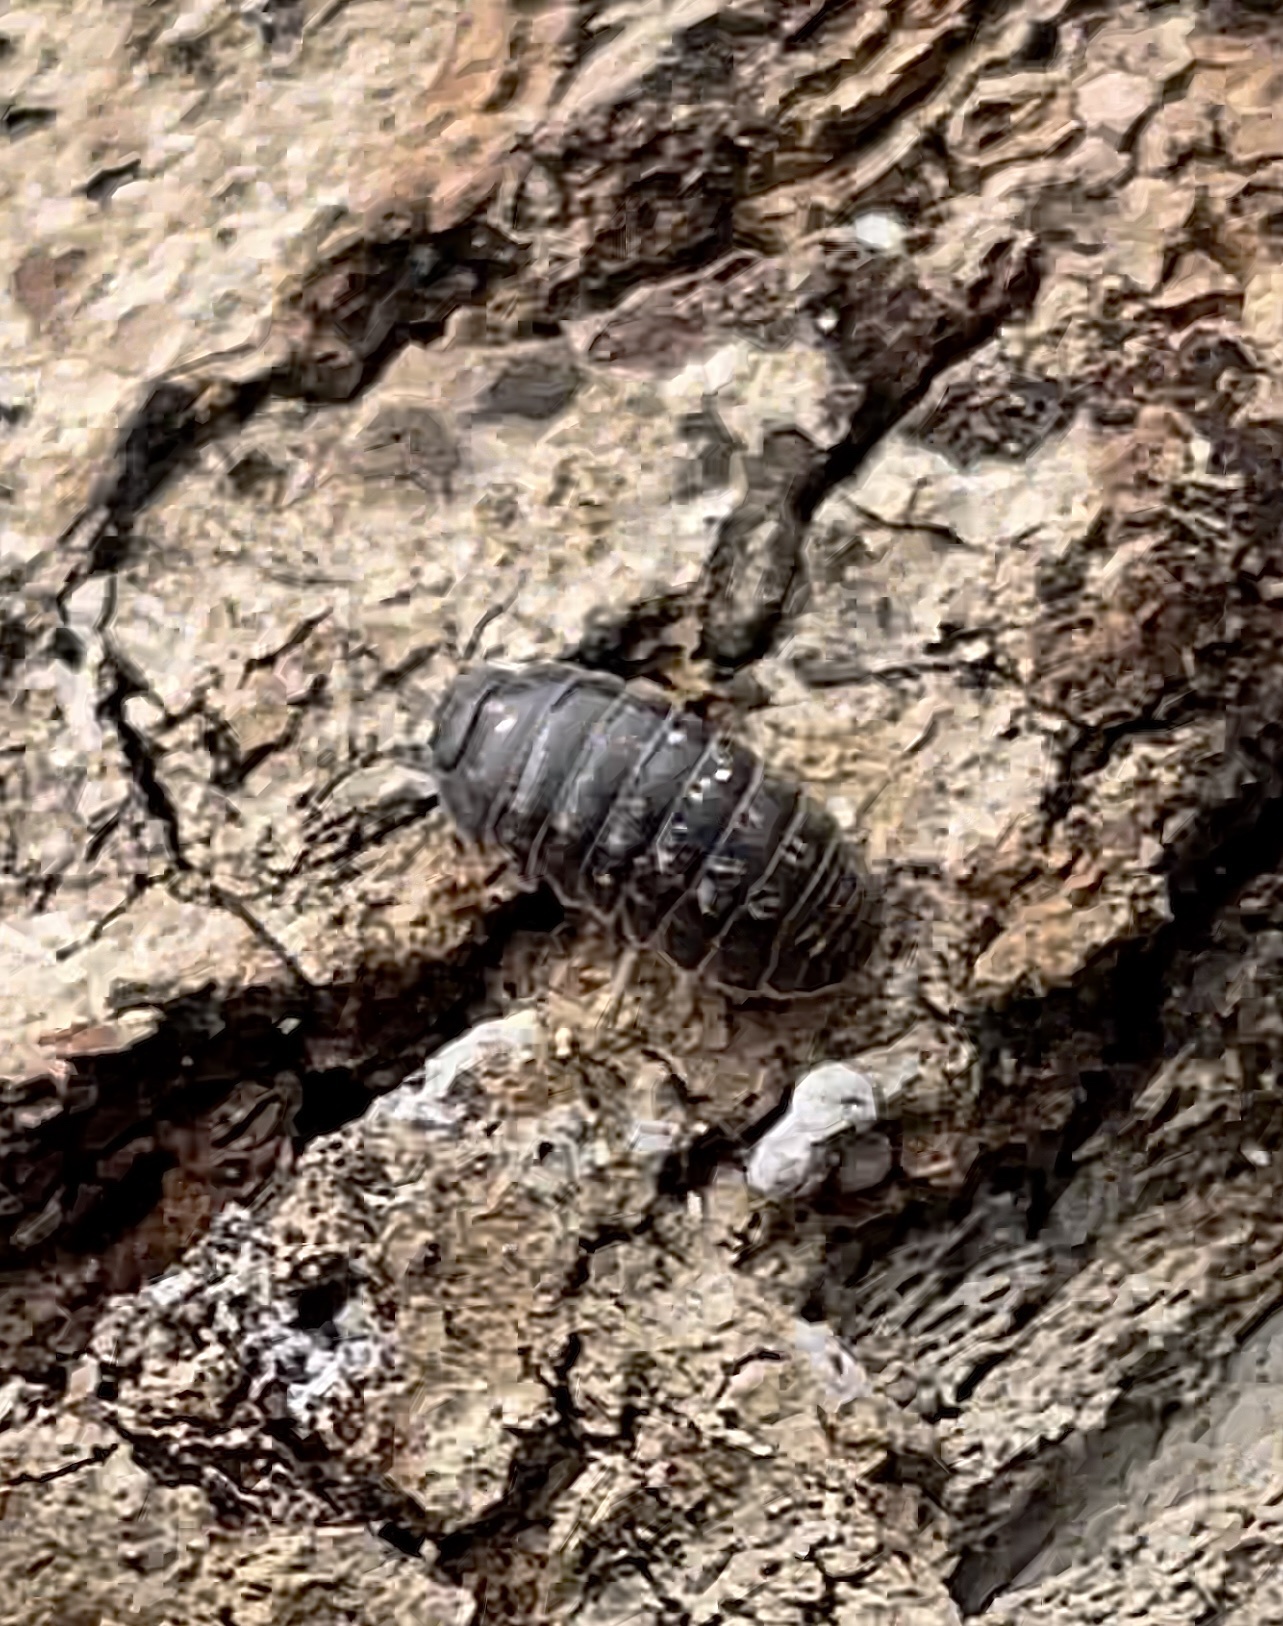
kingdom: Animalia
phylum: Arthropoda
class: Malacostraca
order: Isopoda
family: Armadillidiidae
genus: Armadillidium
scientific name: Armadillidium vulgare
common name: Common pill woodlouse
